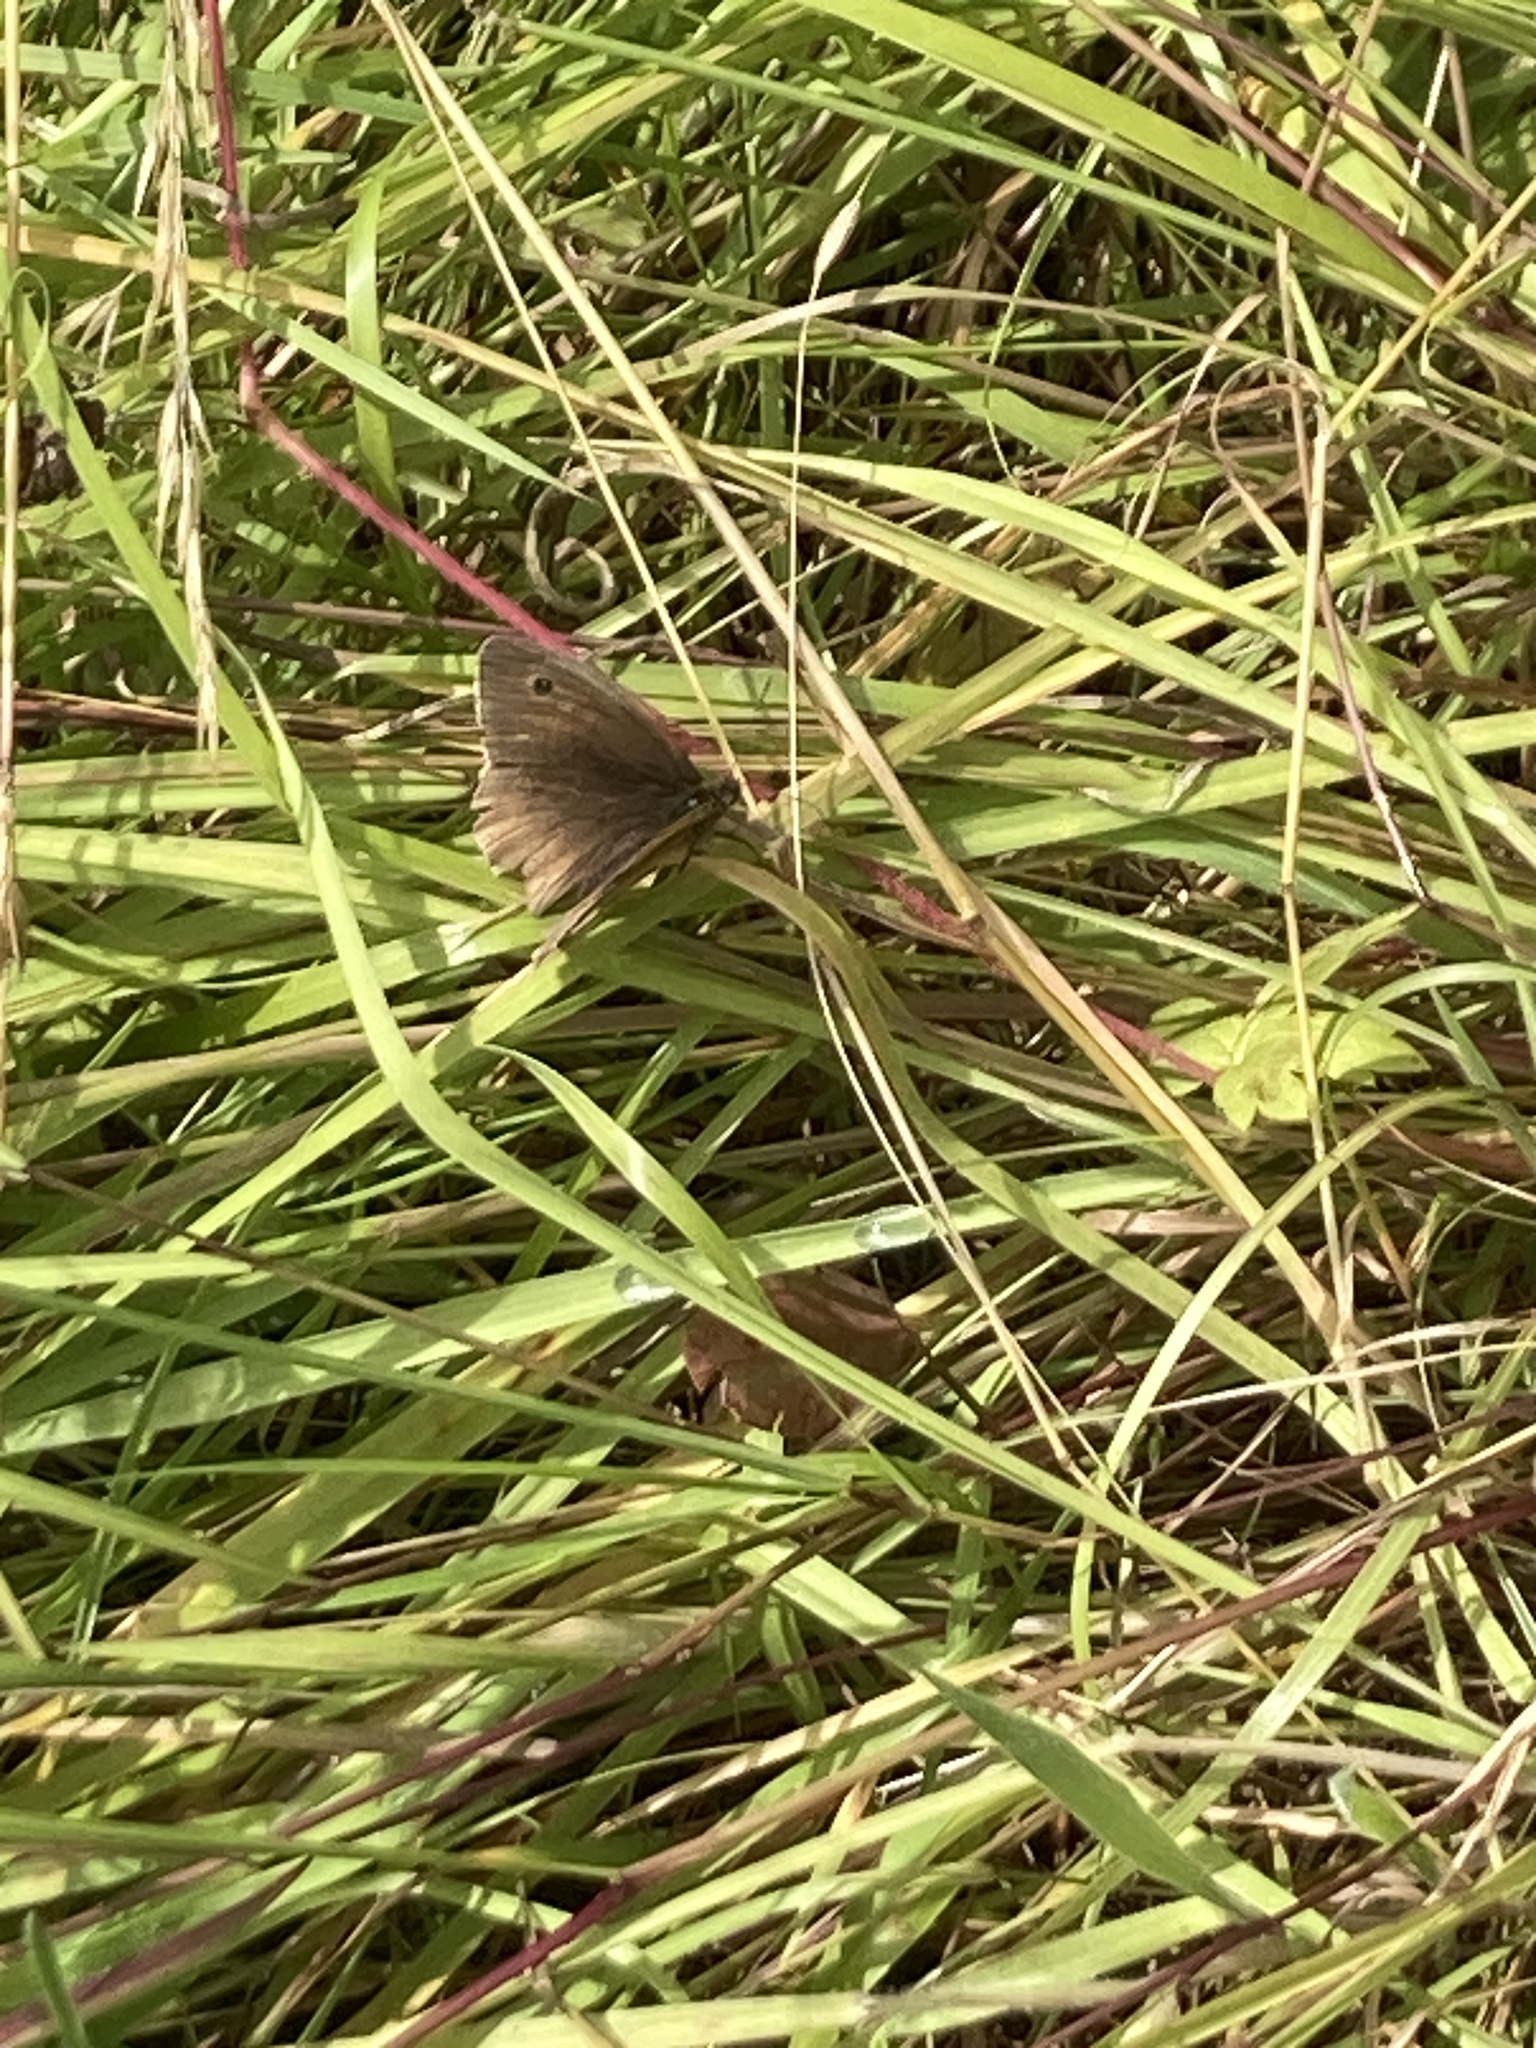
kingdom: Animalia
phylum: Arthropoda
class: Insecta
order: Lepidoptera
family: Nymphalidae
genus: Maniola
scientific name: Maniola jurtina
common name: Meadow brown
